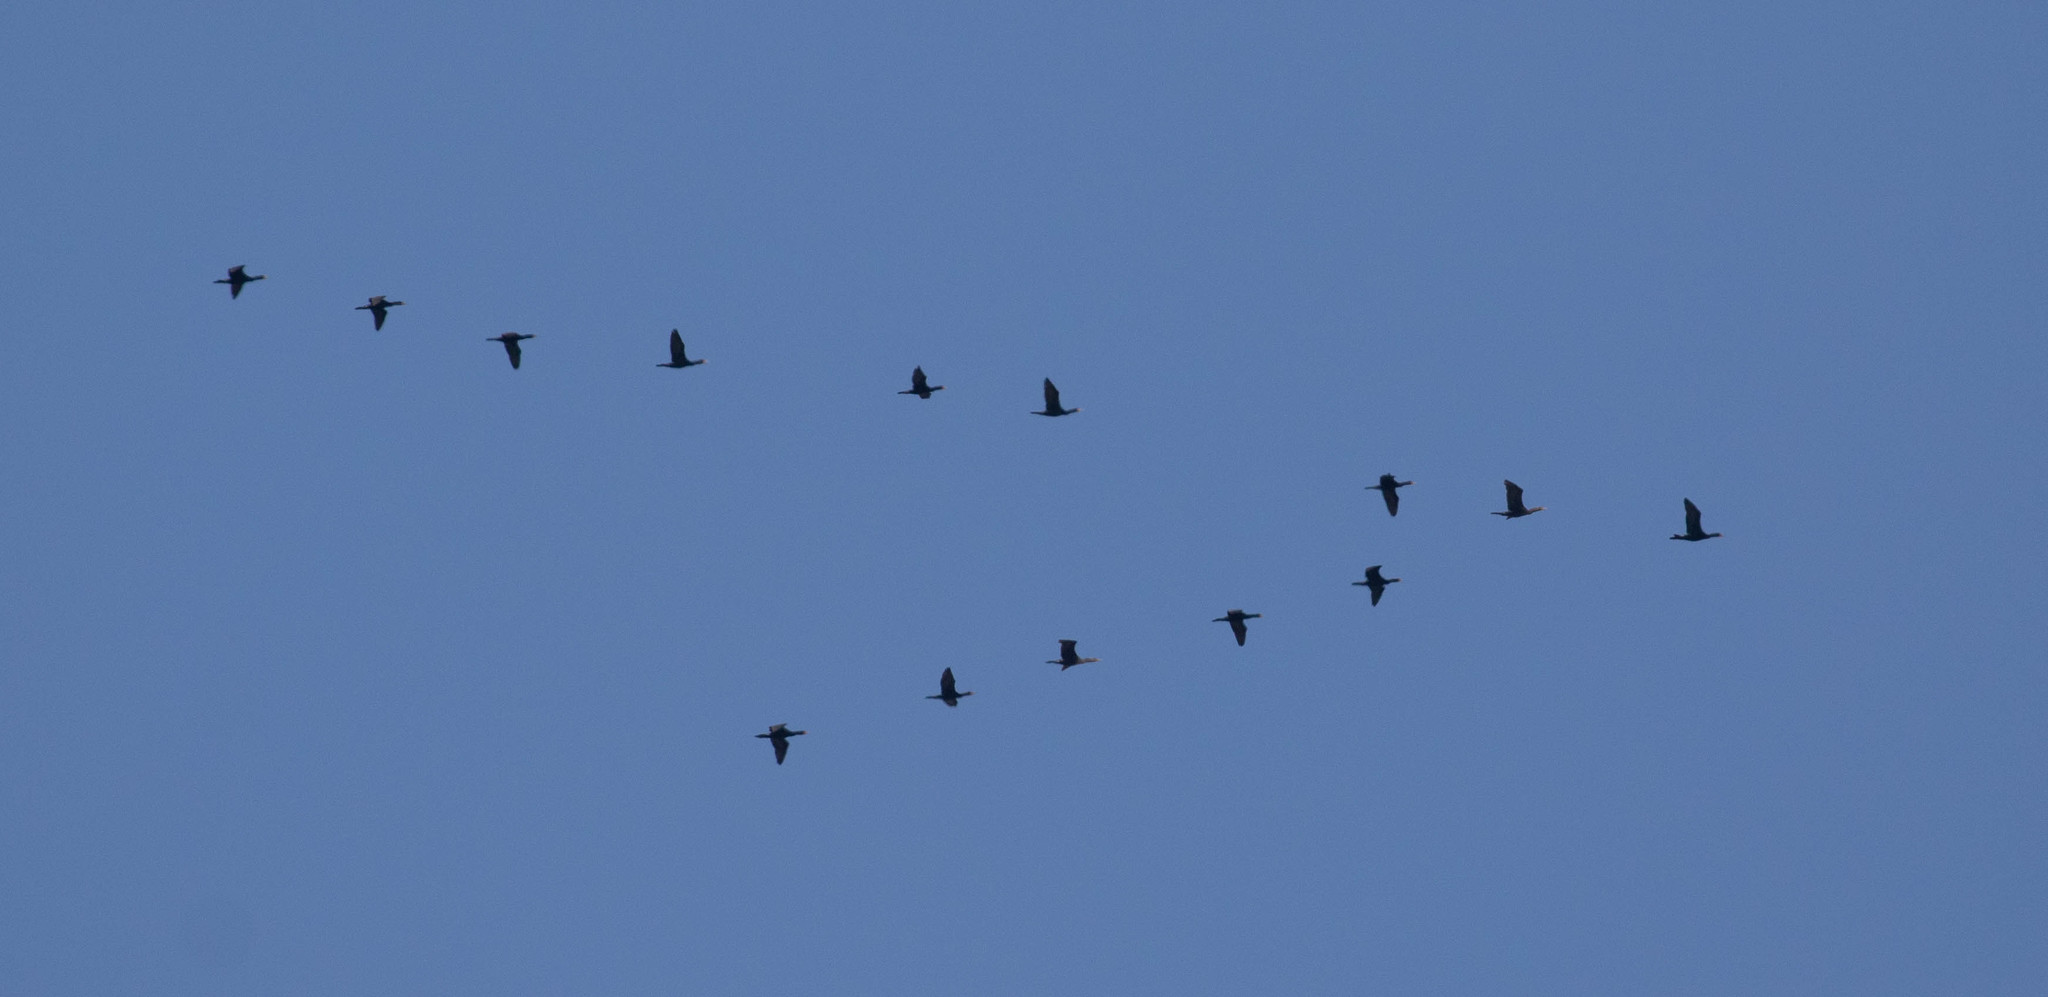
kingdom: Animalia
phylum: Chordata
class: Aves
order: Suliformes
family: Phalacrocoracidae
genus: Phalacrocorax
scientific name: Phalacrocorax auritus
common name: Double-crested cormorant
